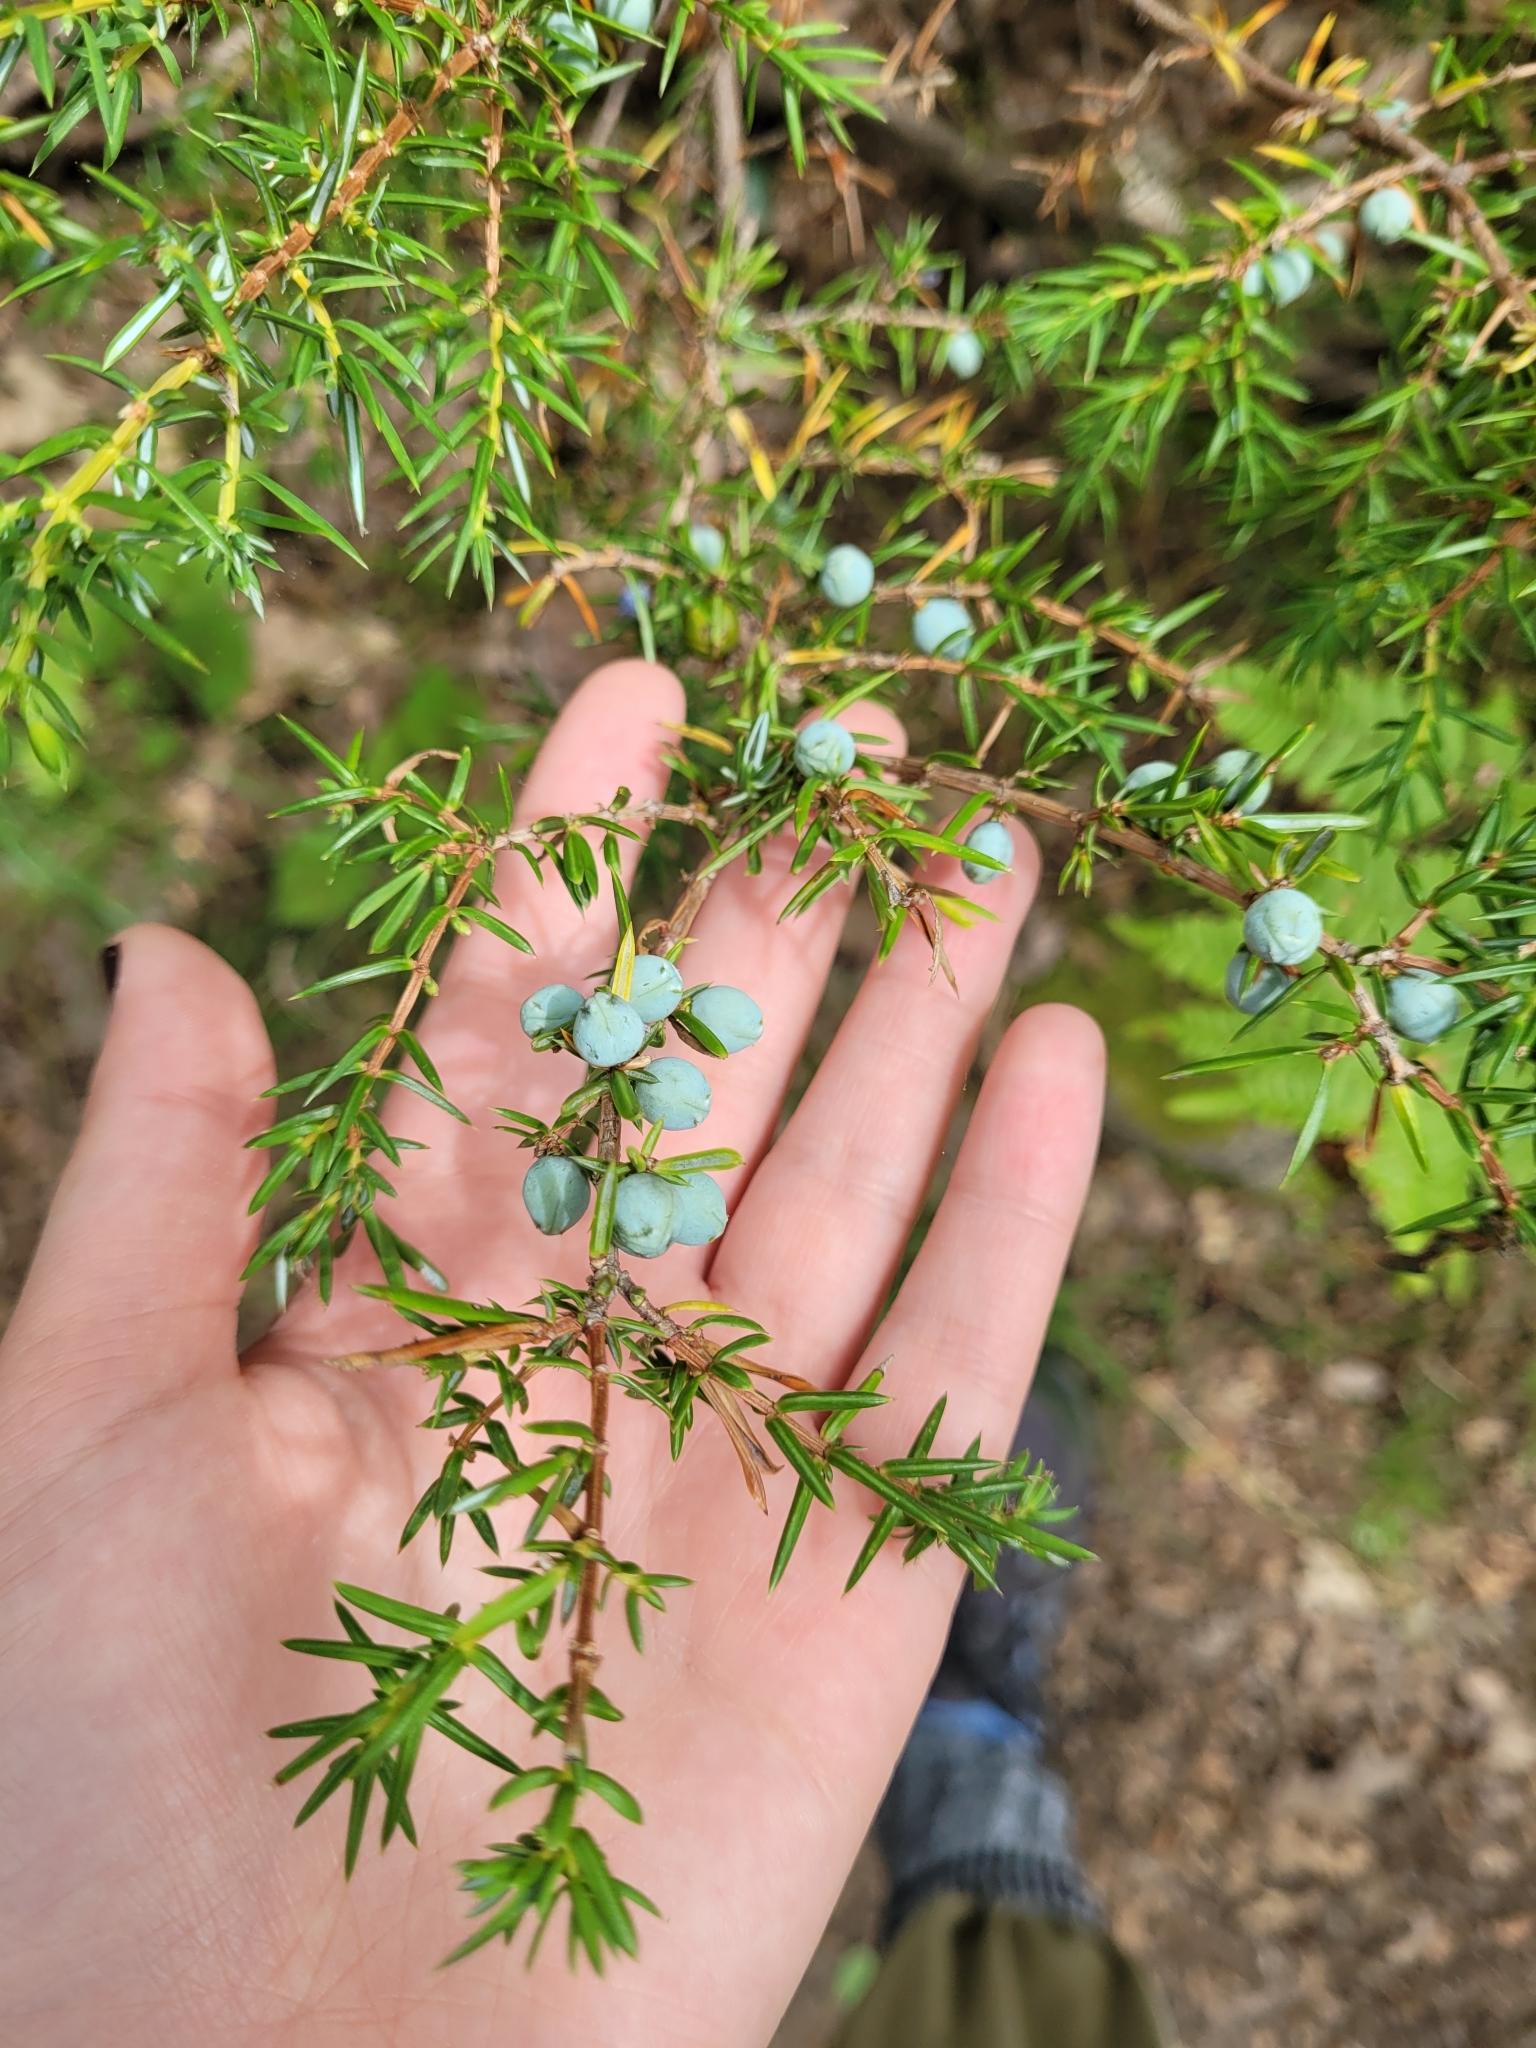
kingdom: Plantae
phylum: Tracheophyta
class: Pinopsida
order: Pinales
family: Cupressaceae
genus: Juniperus
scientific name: Juniperus communis
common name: Common juniper
